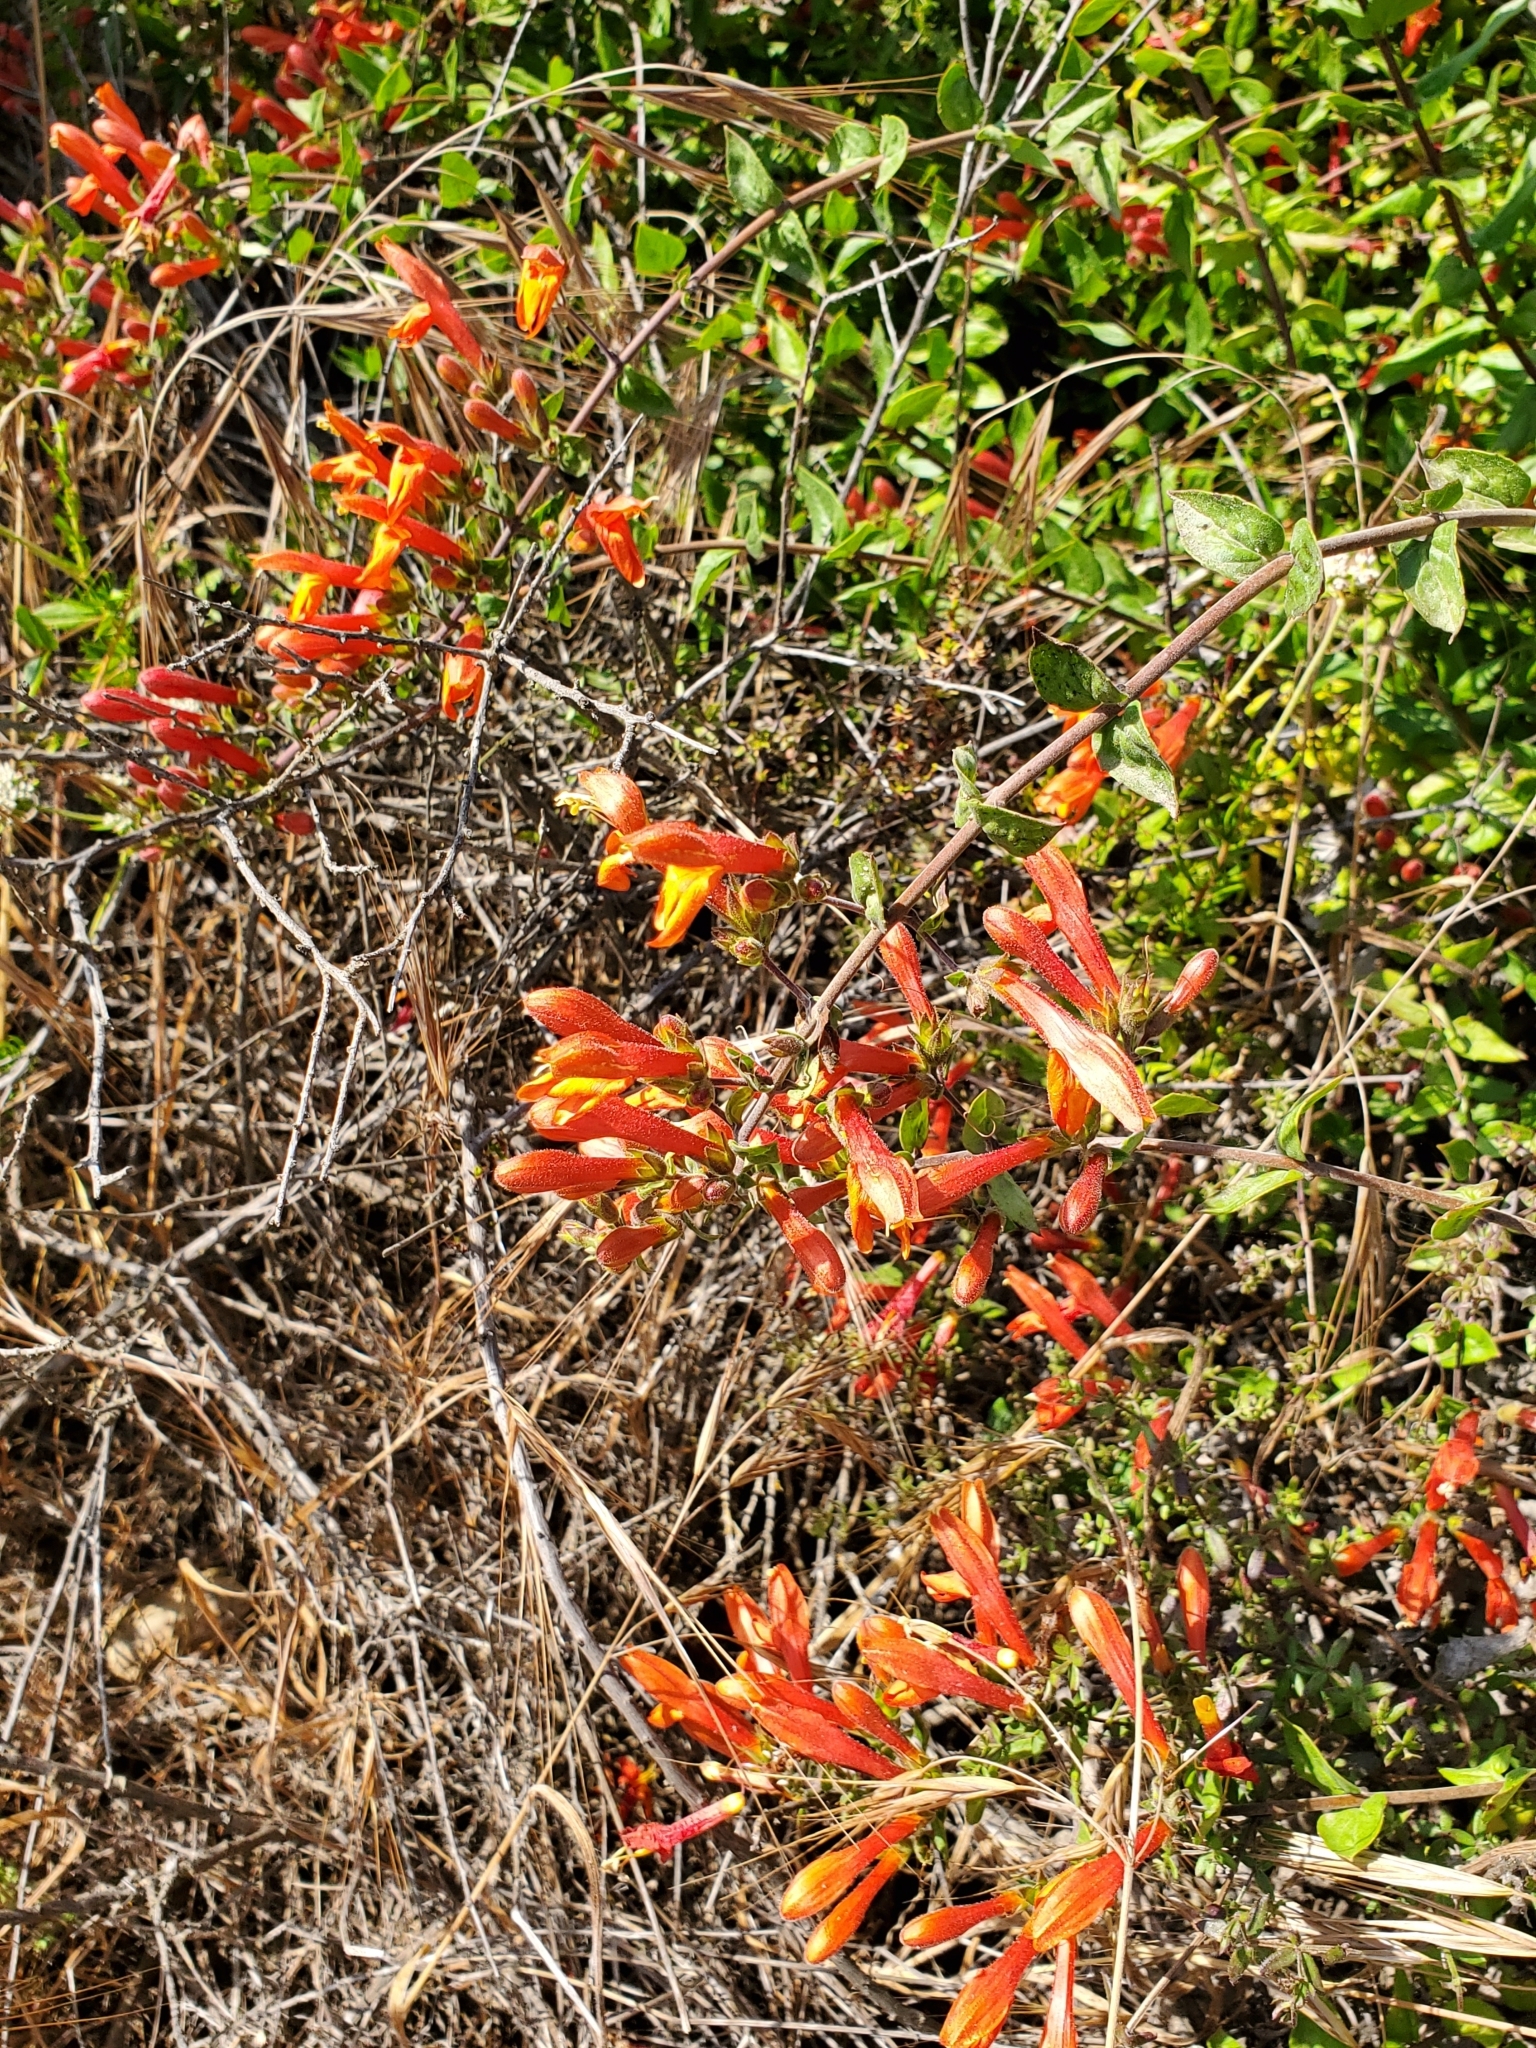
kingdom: Plantae
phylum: Tracheophyta
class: Magnoliopsida
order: Lamiales
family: Plantaginaceae
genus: Keckiella
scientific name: Keckiella cordifolia
